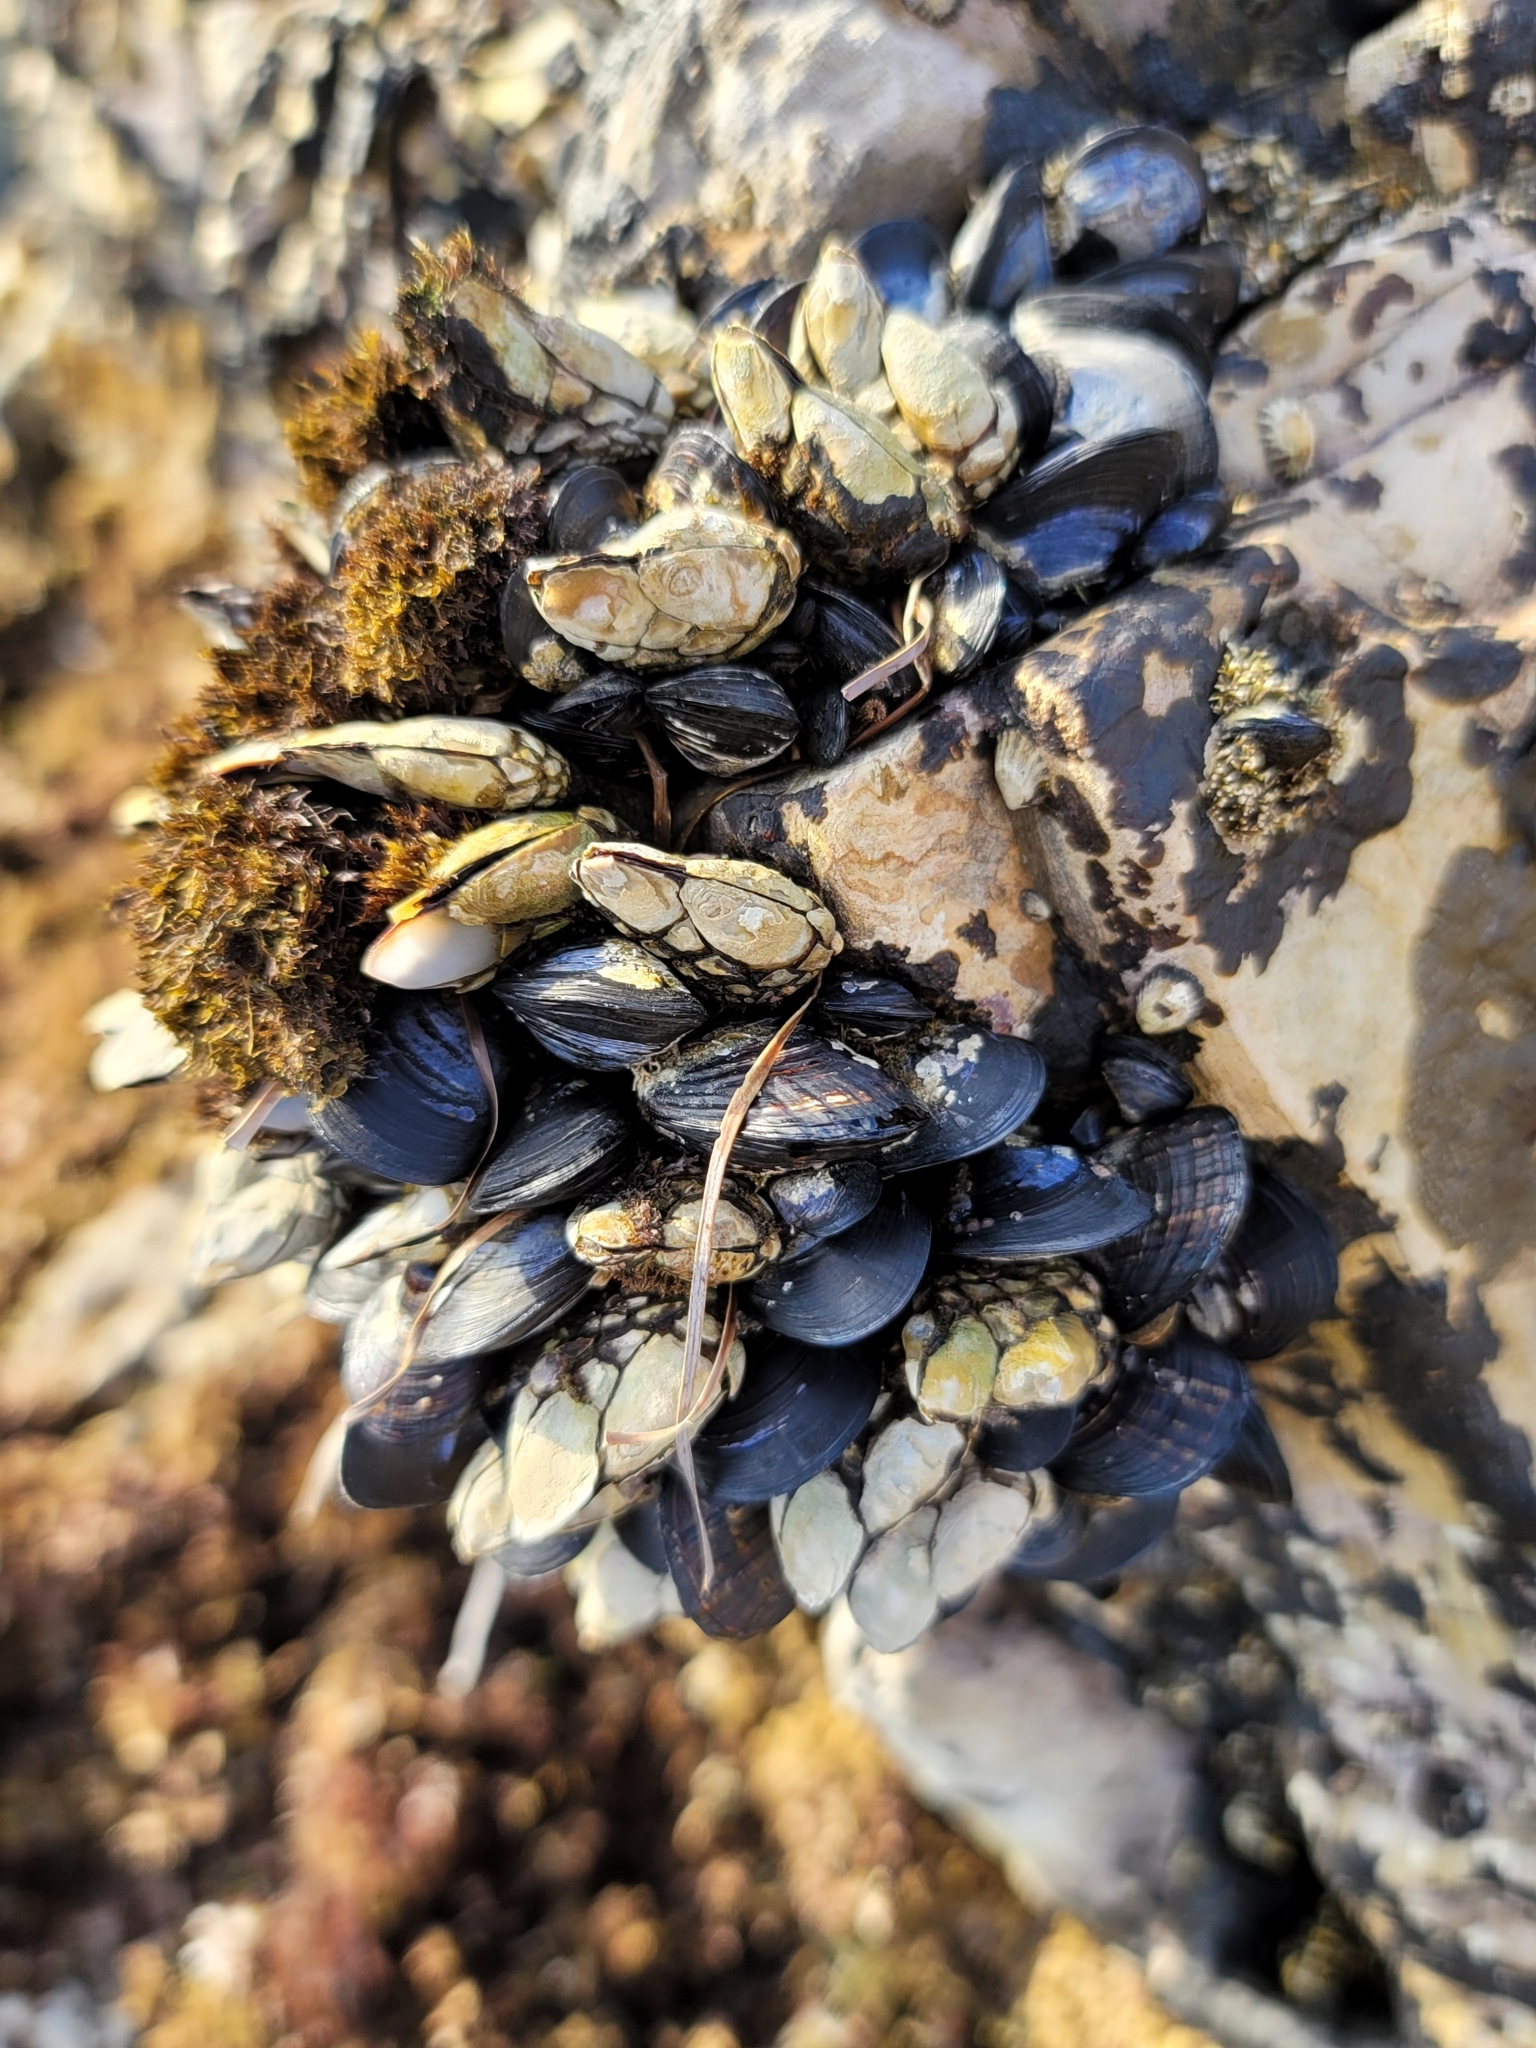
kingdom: Animalia
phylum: Arthropoda
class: Maxillopoda
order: Pedunculata
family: Pollicipedidae
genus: Pollicipes
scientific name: Pollicipes polymerus
